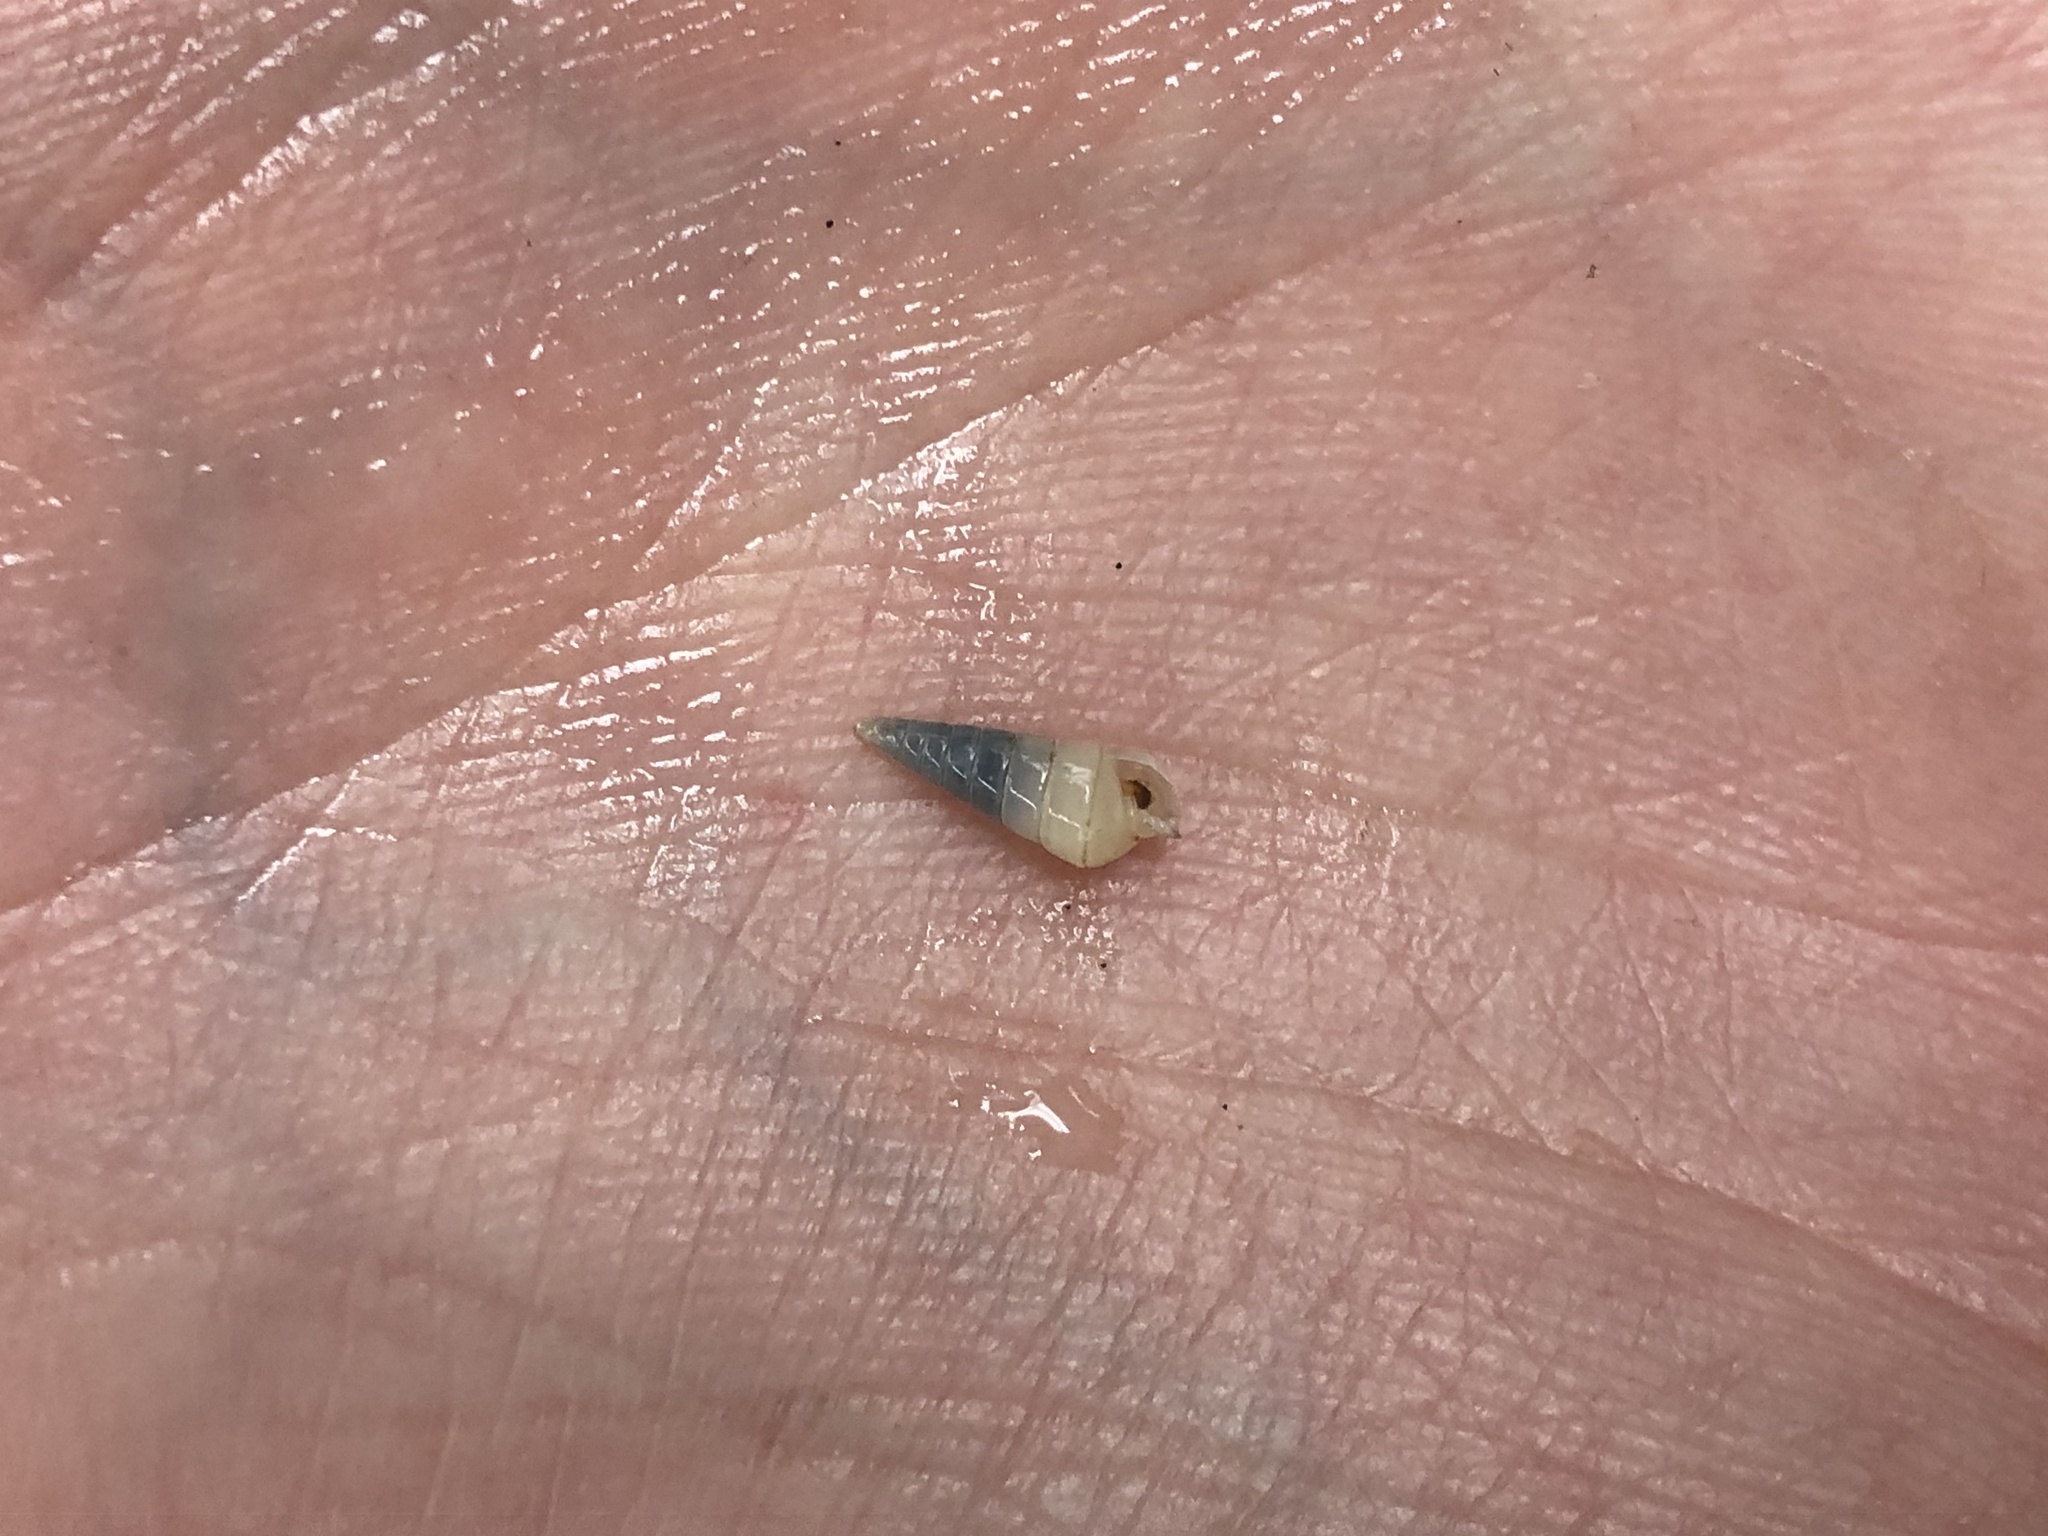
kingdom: Animalia
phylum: Mollusca
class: Gastropoda
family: Pyramidellidae
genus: Longchaeus
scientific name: Longchaeus suturalis
